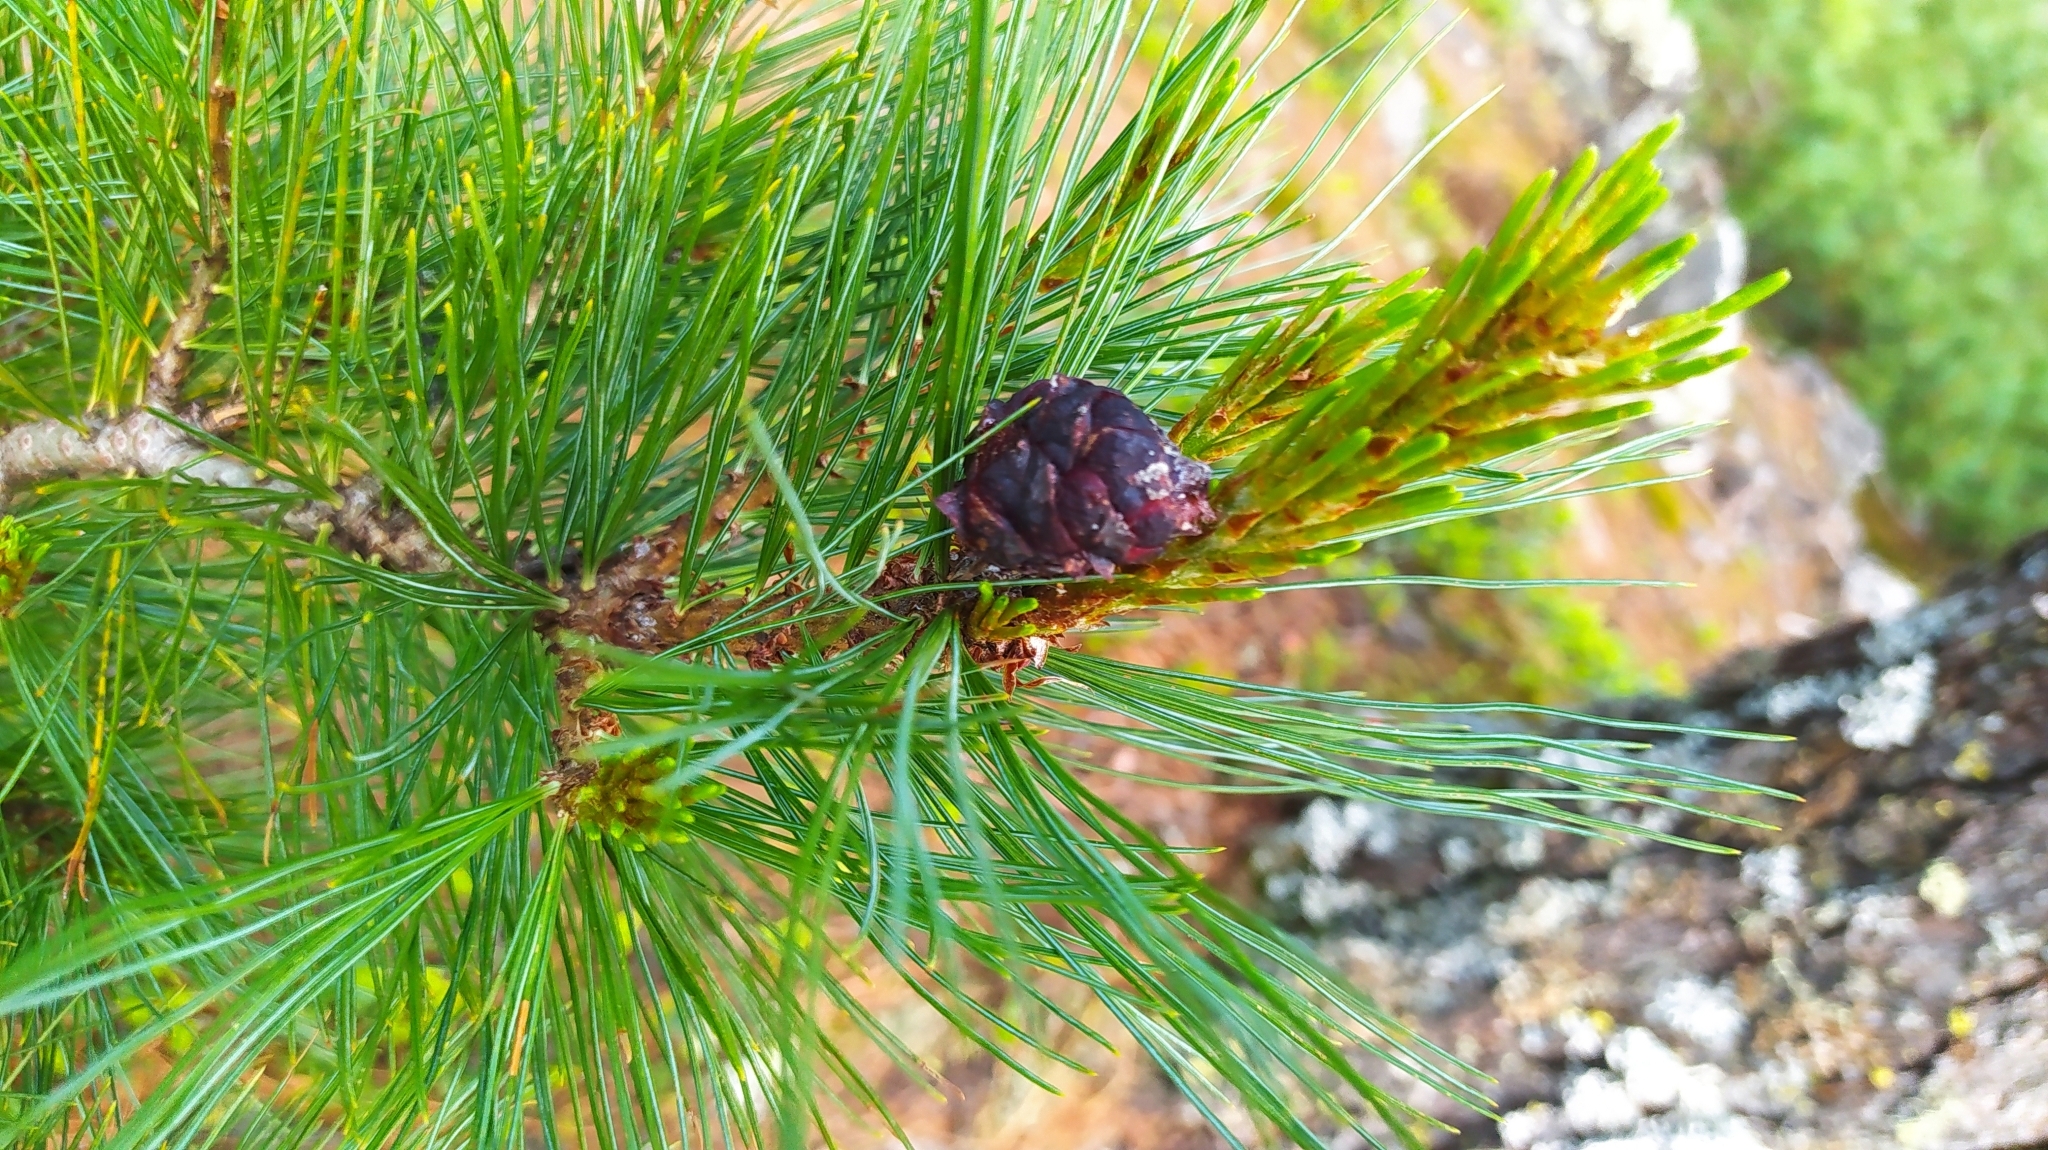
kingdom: Plantae
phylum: Tracheophyta
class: Pinopsida
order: Pinales
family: Pinaceae
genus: Pinus
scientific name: Pinus pumila
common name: Dwarf siberian pine
